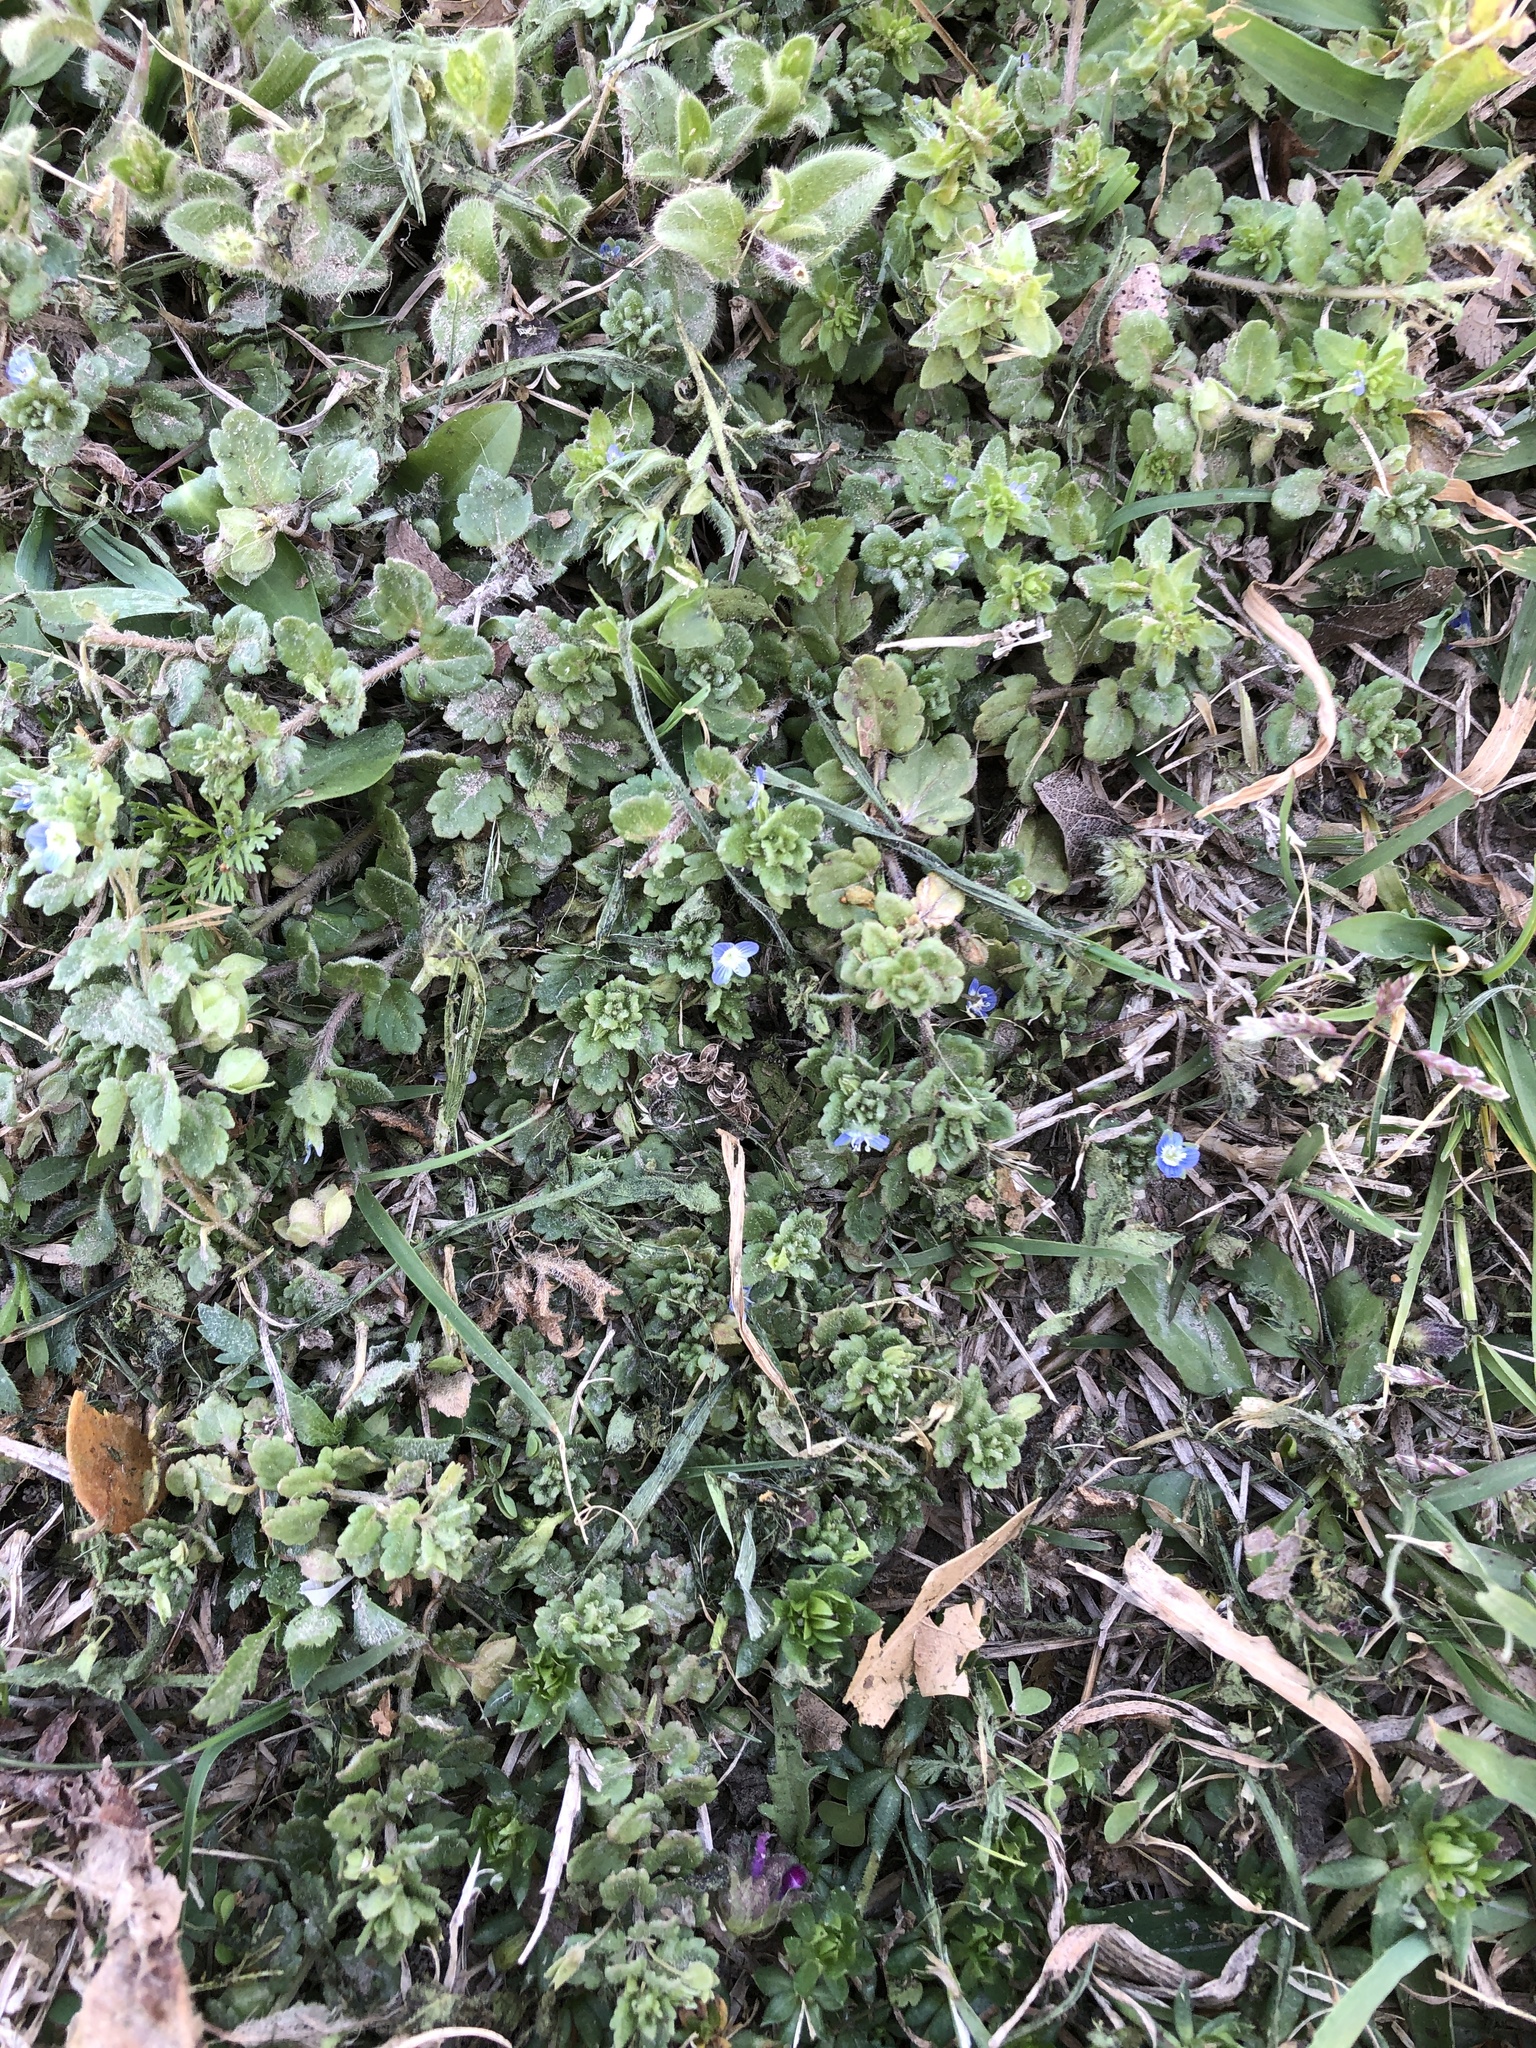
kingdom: Plantae
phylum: Tracheophyta
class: Magnoliopsida
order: Lamiales
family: Plantaginaceae
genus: Veronica
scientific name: Veronica polita
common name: Grey field-speedwell
